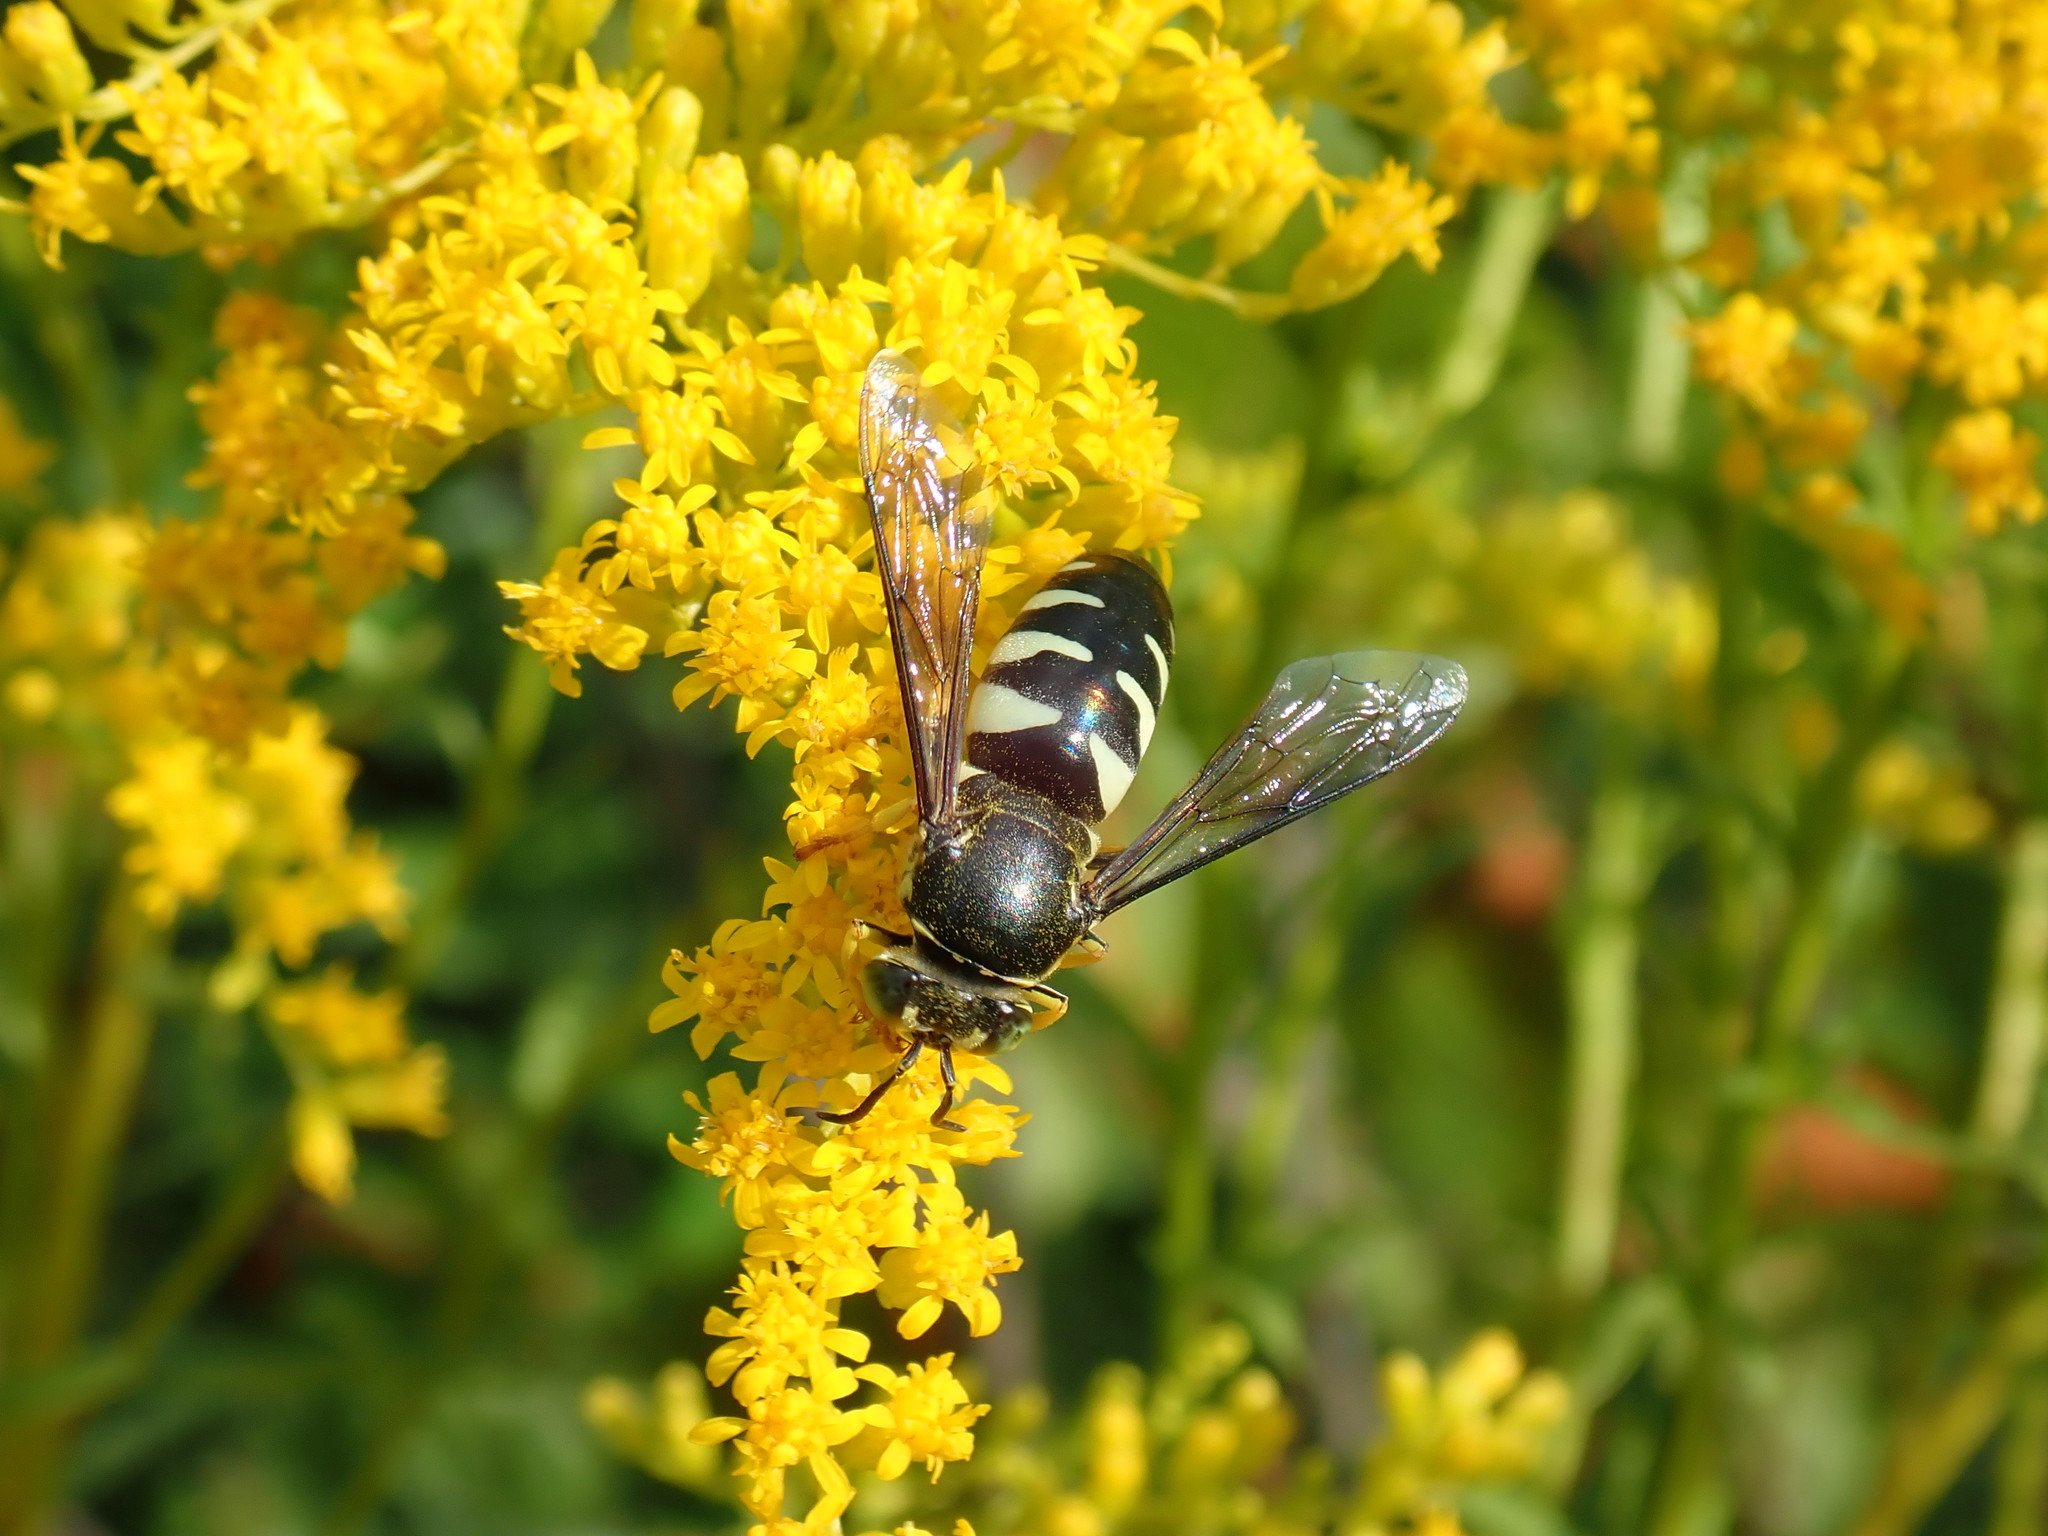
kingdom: Animalia
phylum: Arthropoda
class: Insecta
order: Hymenoptera
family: Crabronidae
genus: Bicyrtes
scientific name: Bicyrtes quadrifasciatus
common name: Four-banded stink bug hunter wasp
